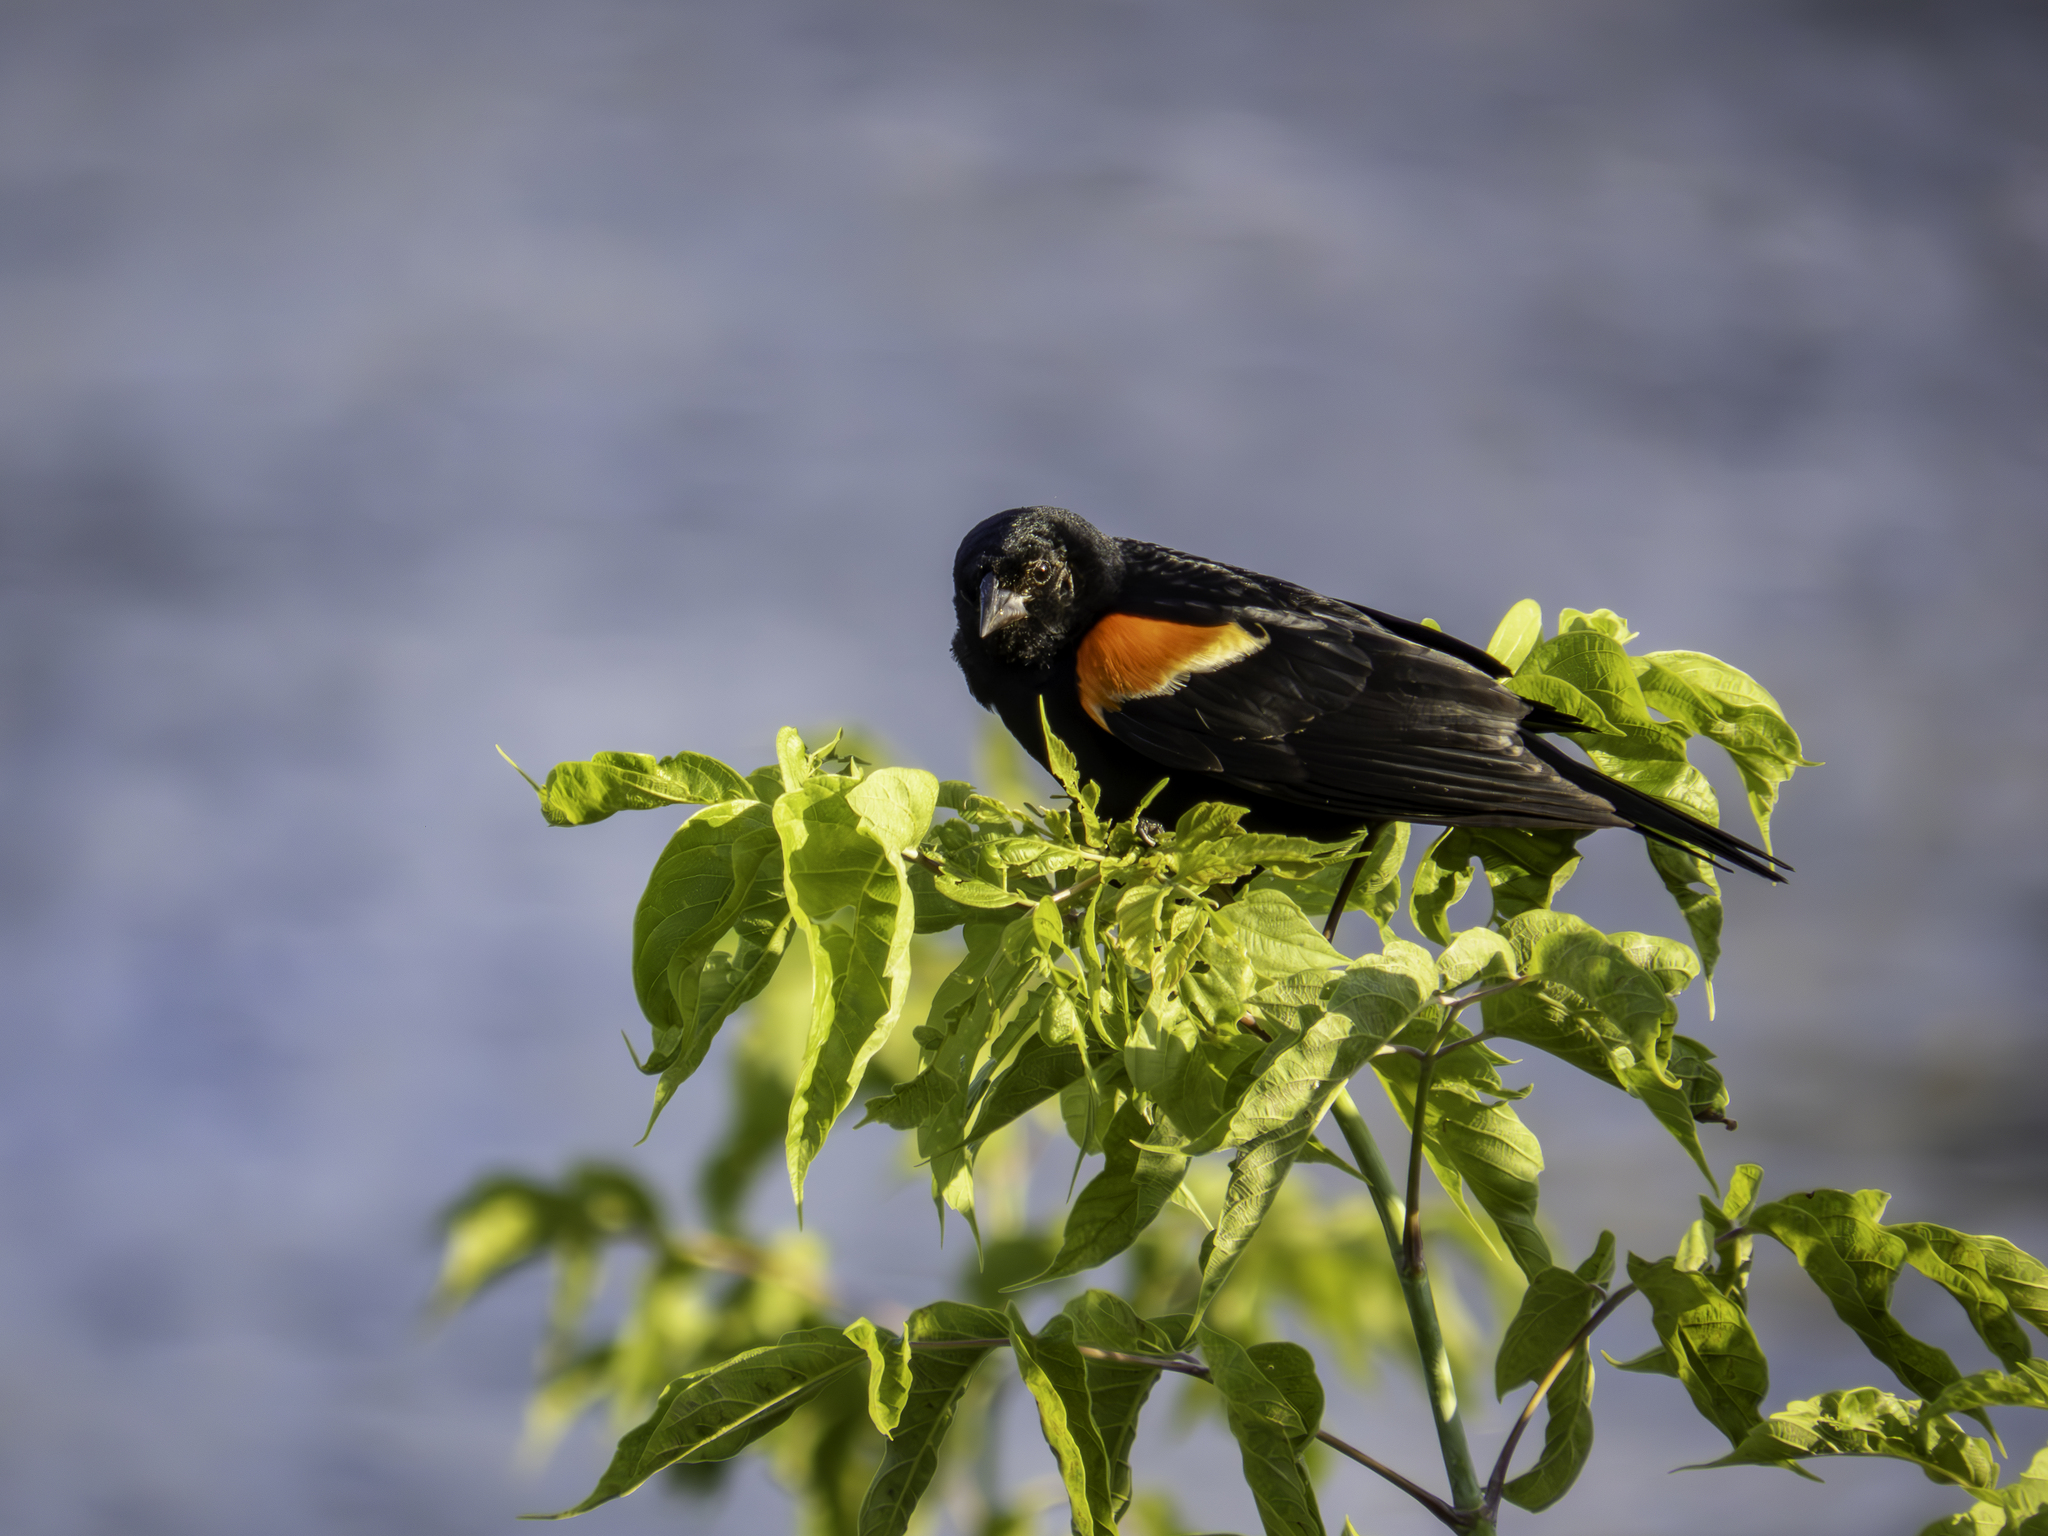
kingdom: Animalia
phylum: Chordata
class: Aves
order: Passeriformes
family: Icteridae
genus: Agelaius
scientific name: Agelaius phoeniceus
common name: Red-winged blackbird
